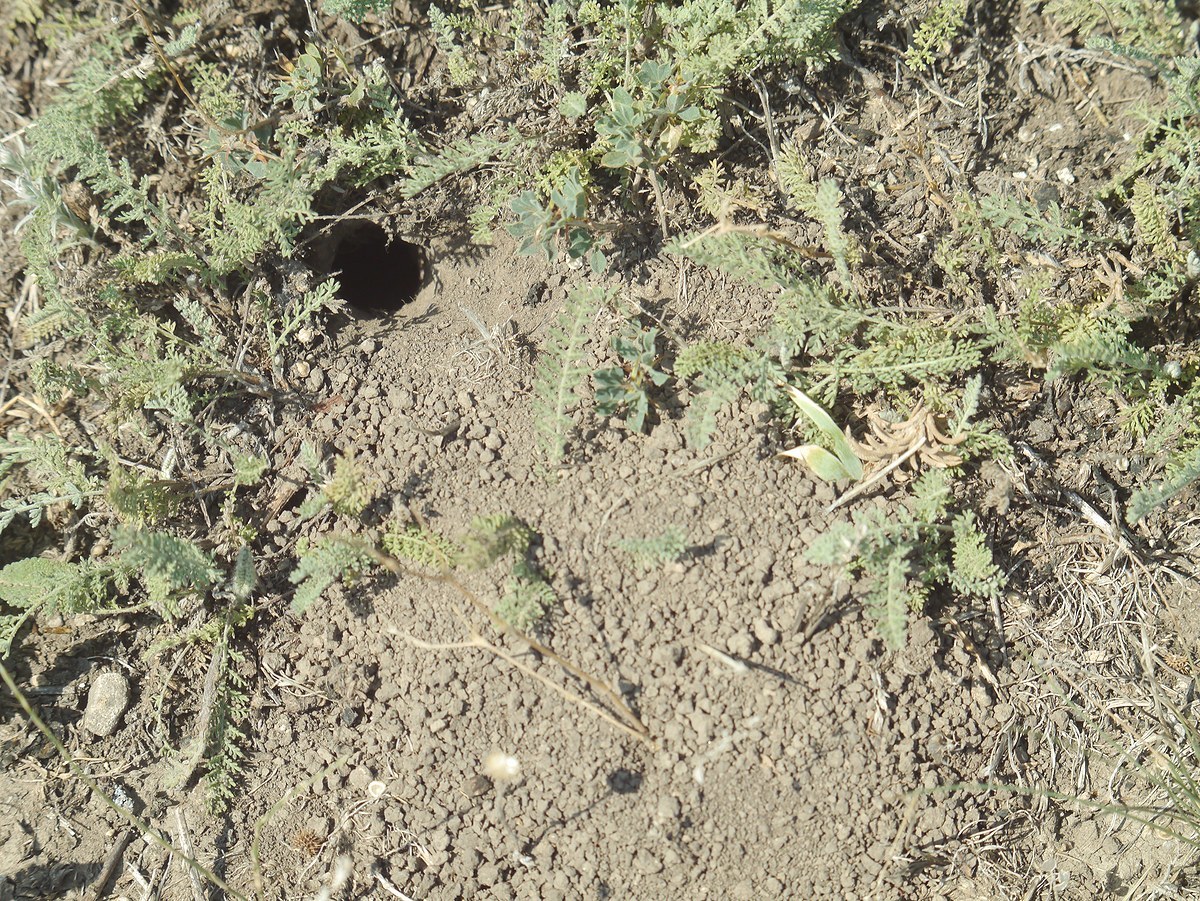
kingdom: Animalia
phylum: Arthropoda
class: Insecta
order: Hymenoptera
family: Pompilidae
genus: Cryptocheilus
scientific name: Cryptocheilus rubellus
